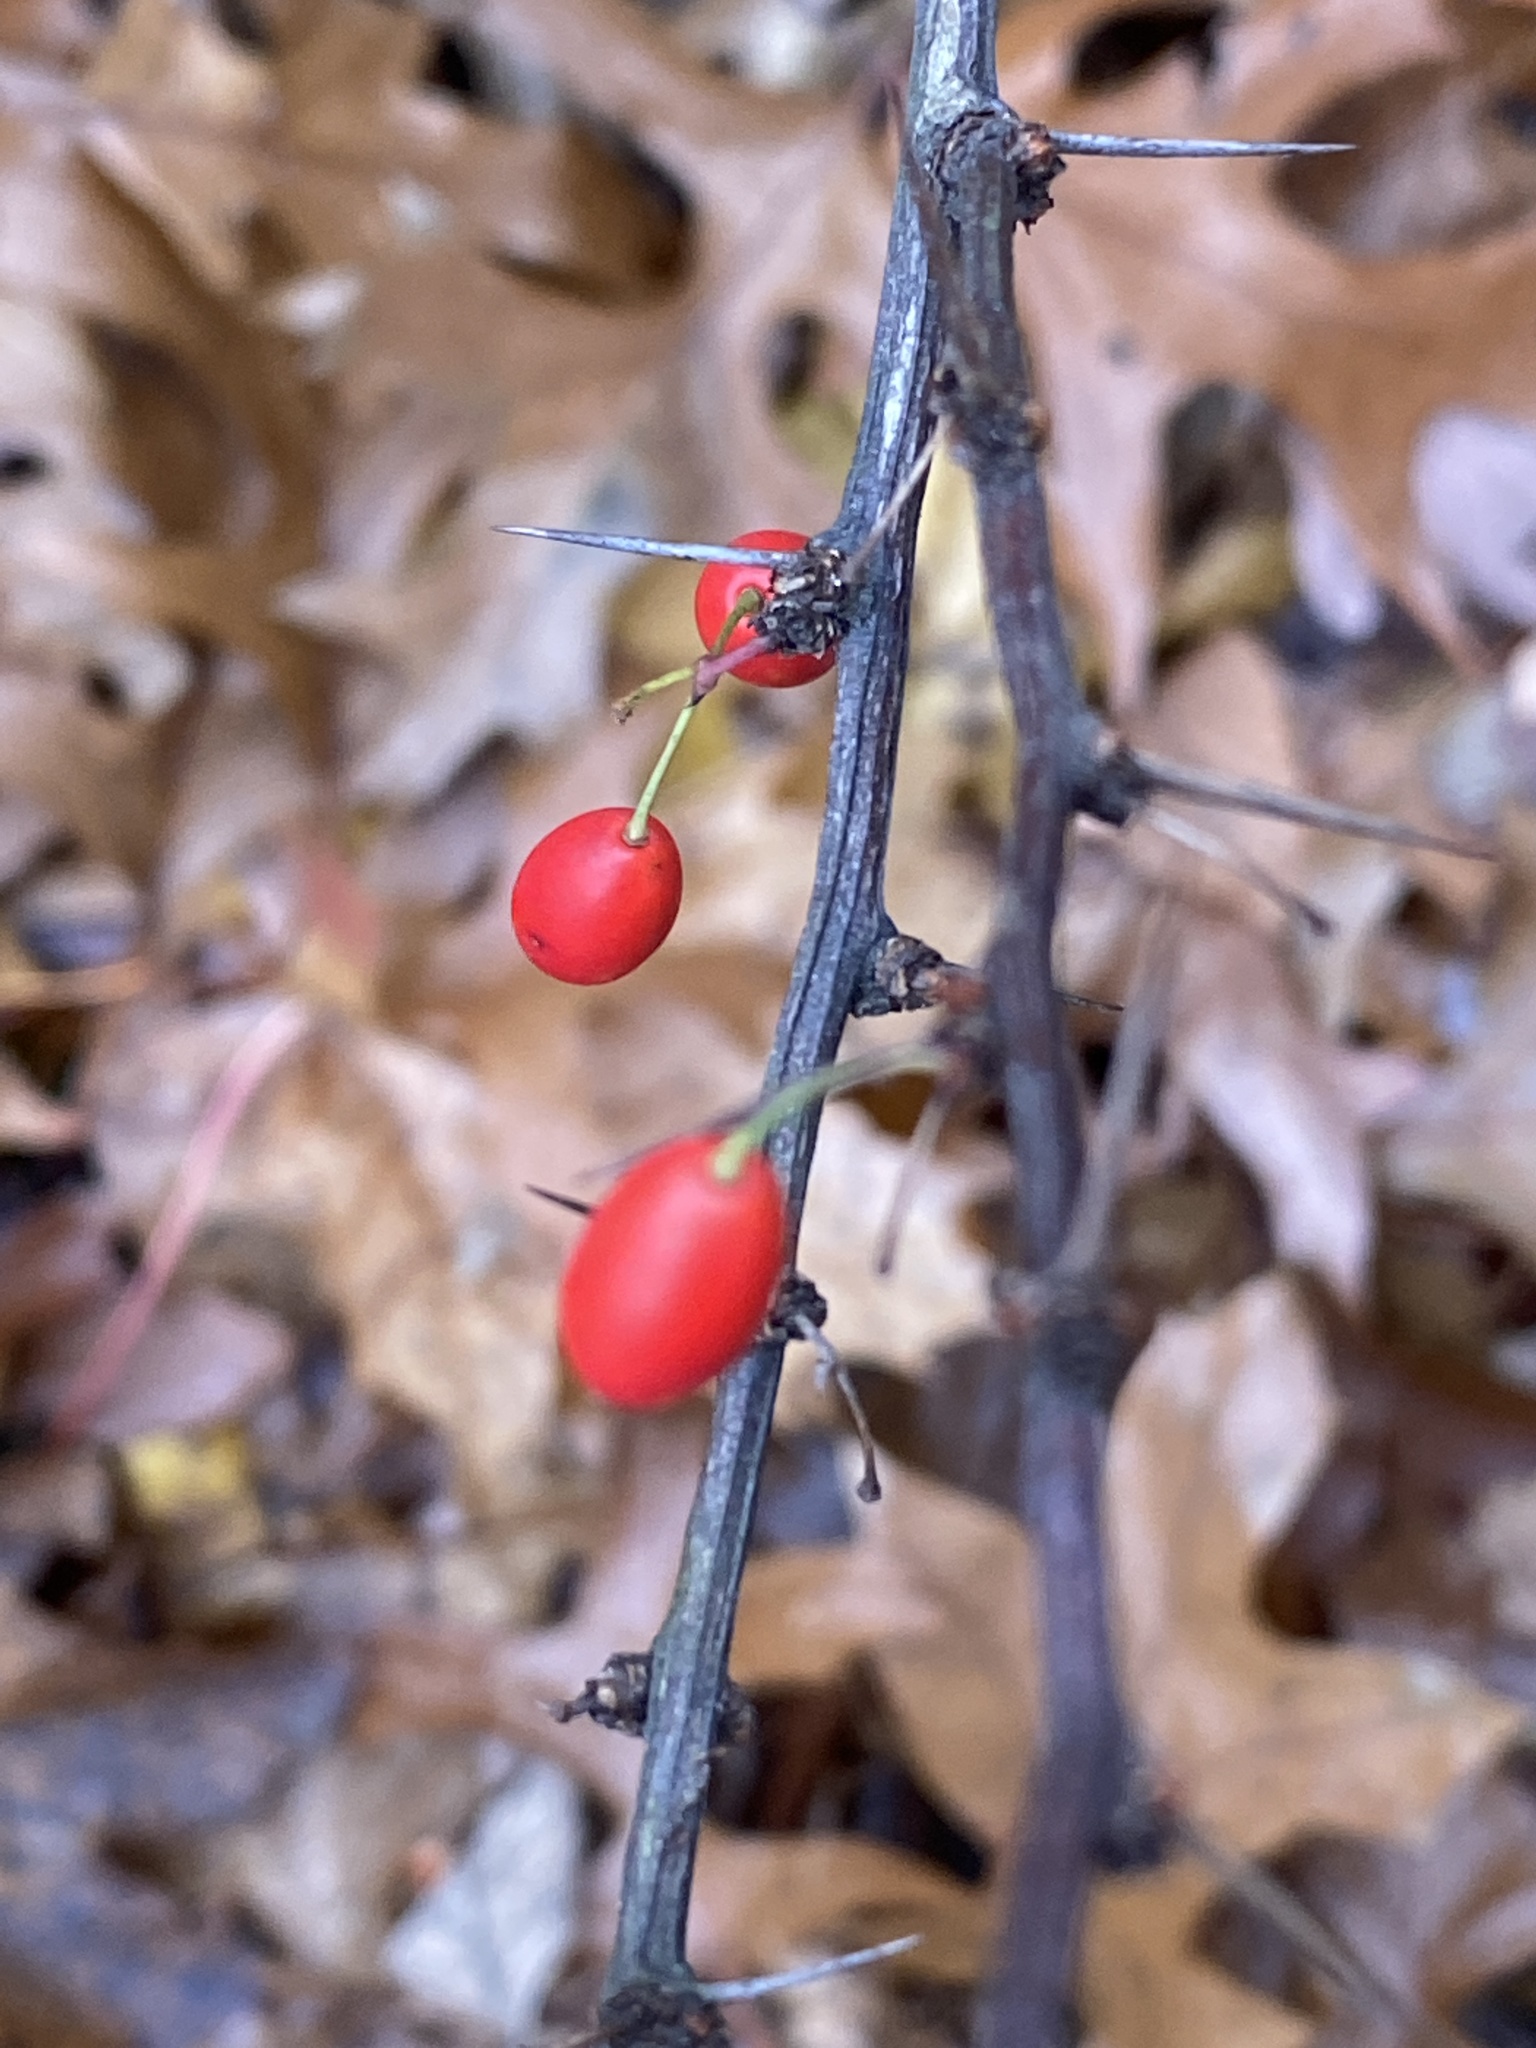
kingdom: Plantae
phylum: Tracheophyta
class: Magnoliopsida
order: Ranunculales
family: Berberidaceae
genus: Berberis
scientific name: Berberis thunbergii
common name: Japanese barberry
